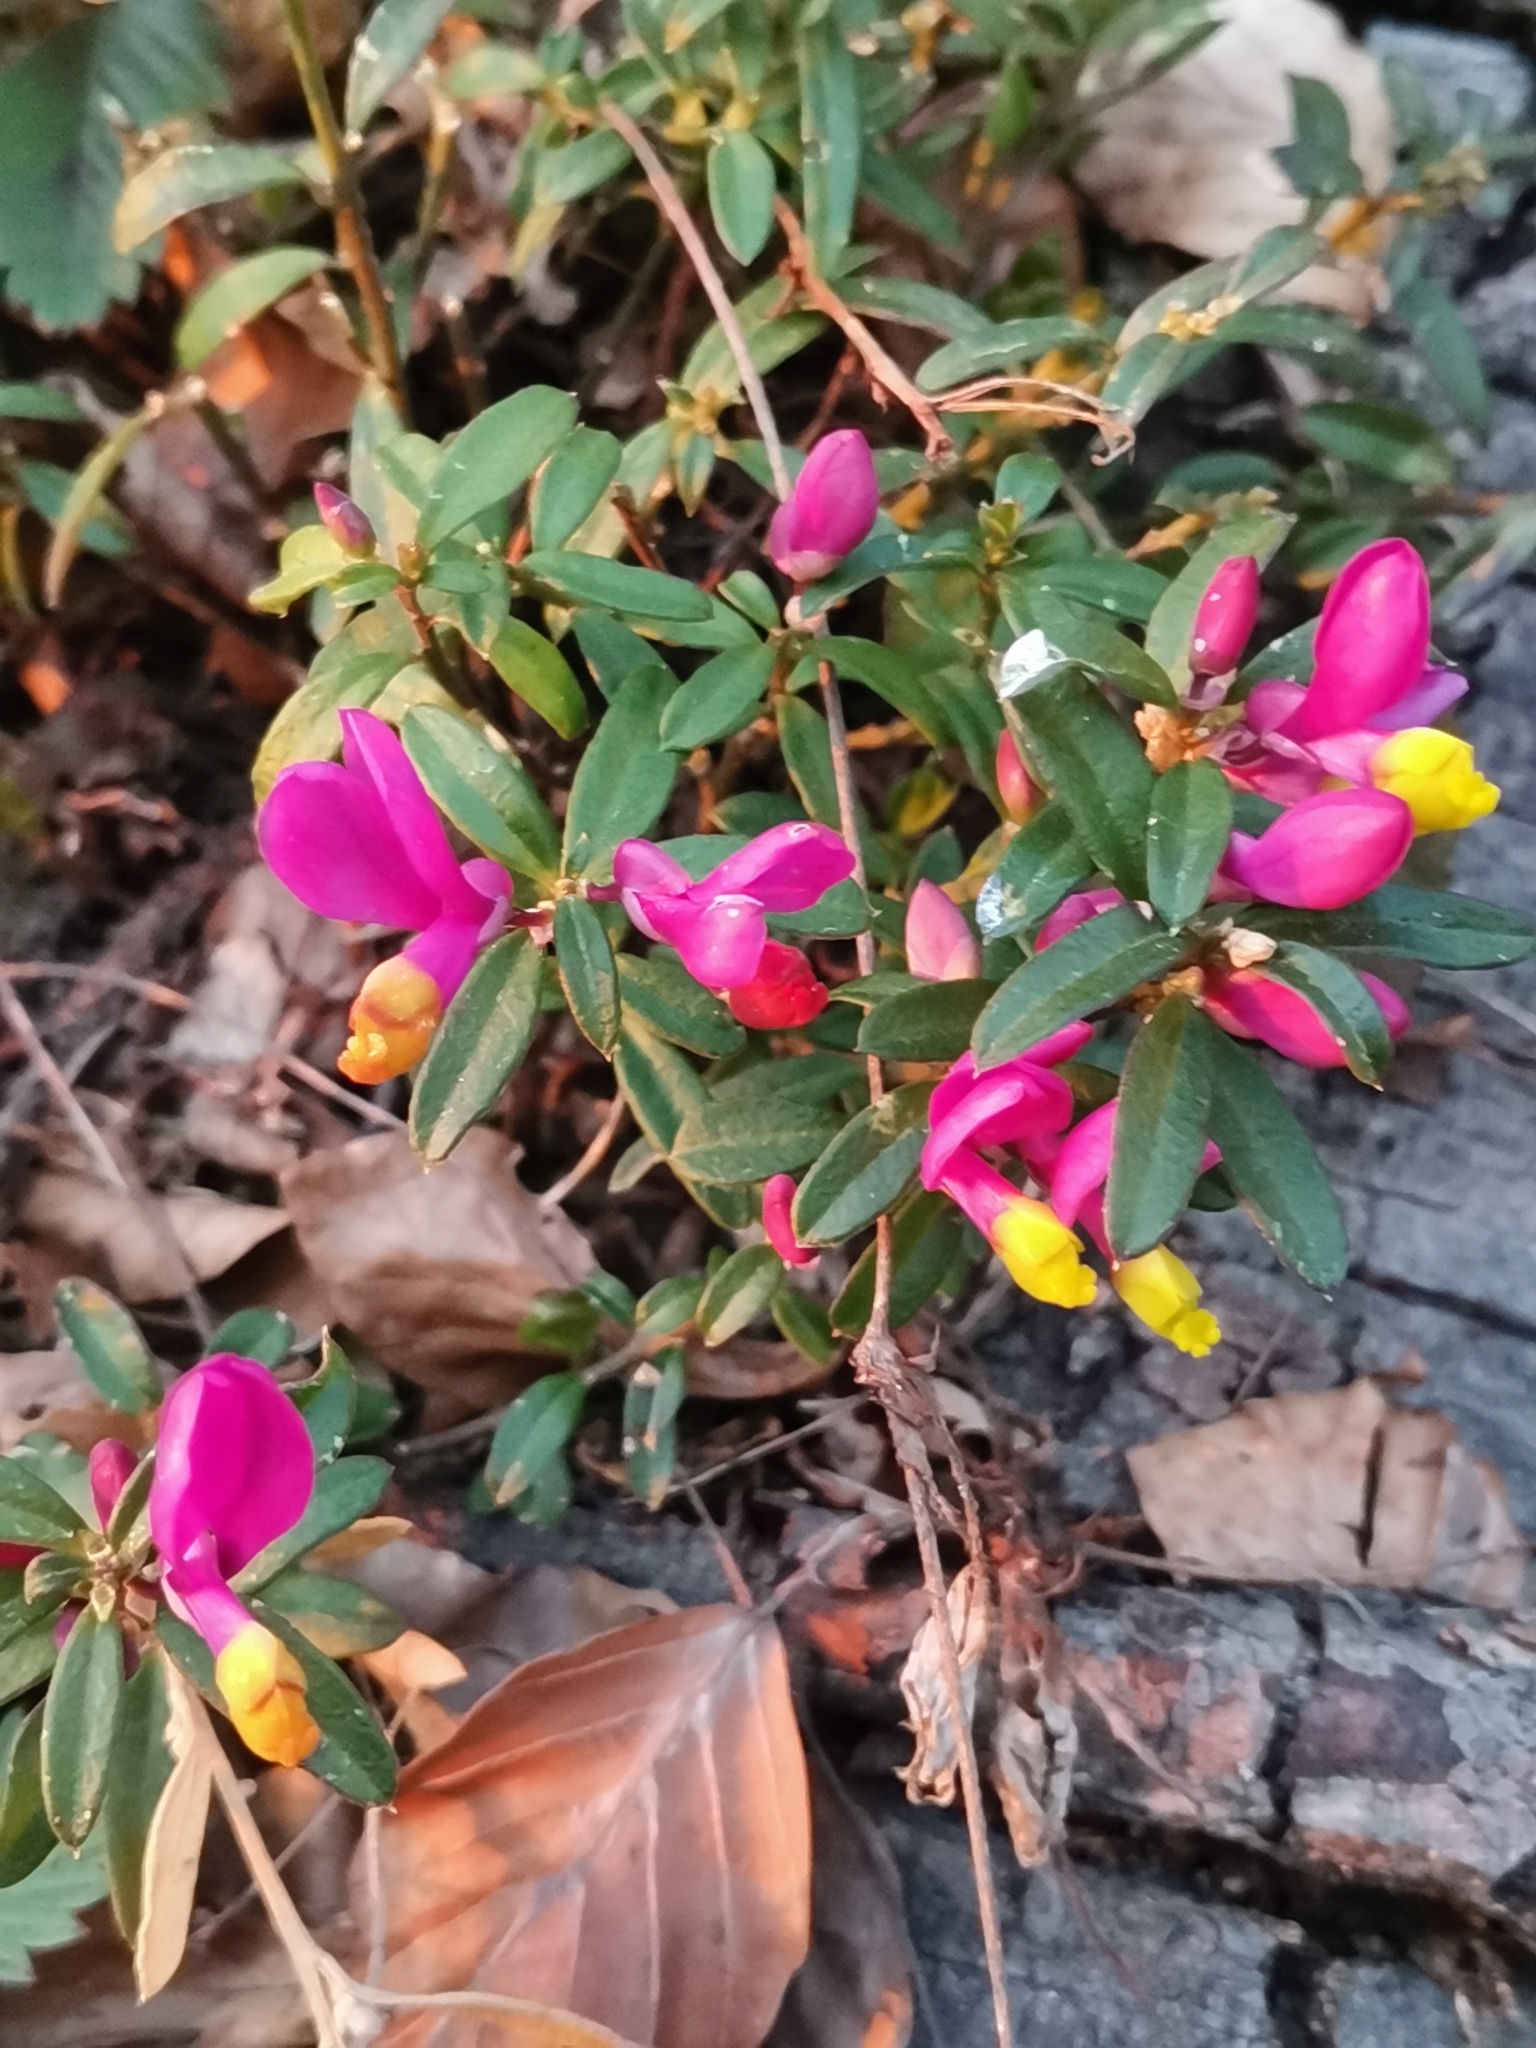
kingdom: Plantae
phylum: Tracheophyta
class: Magnoliopsida
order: Fabales
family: Polygalaceae
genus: Polygaloides
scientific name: Polygaloides chamaebuxus
